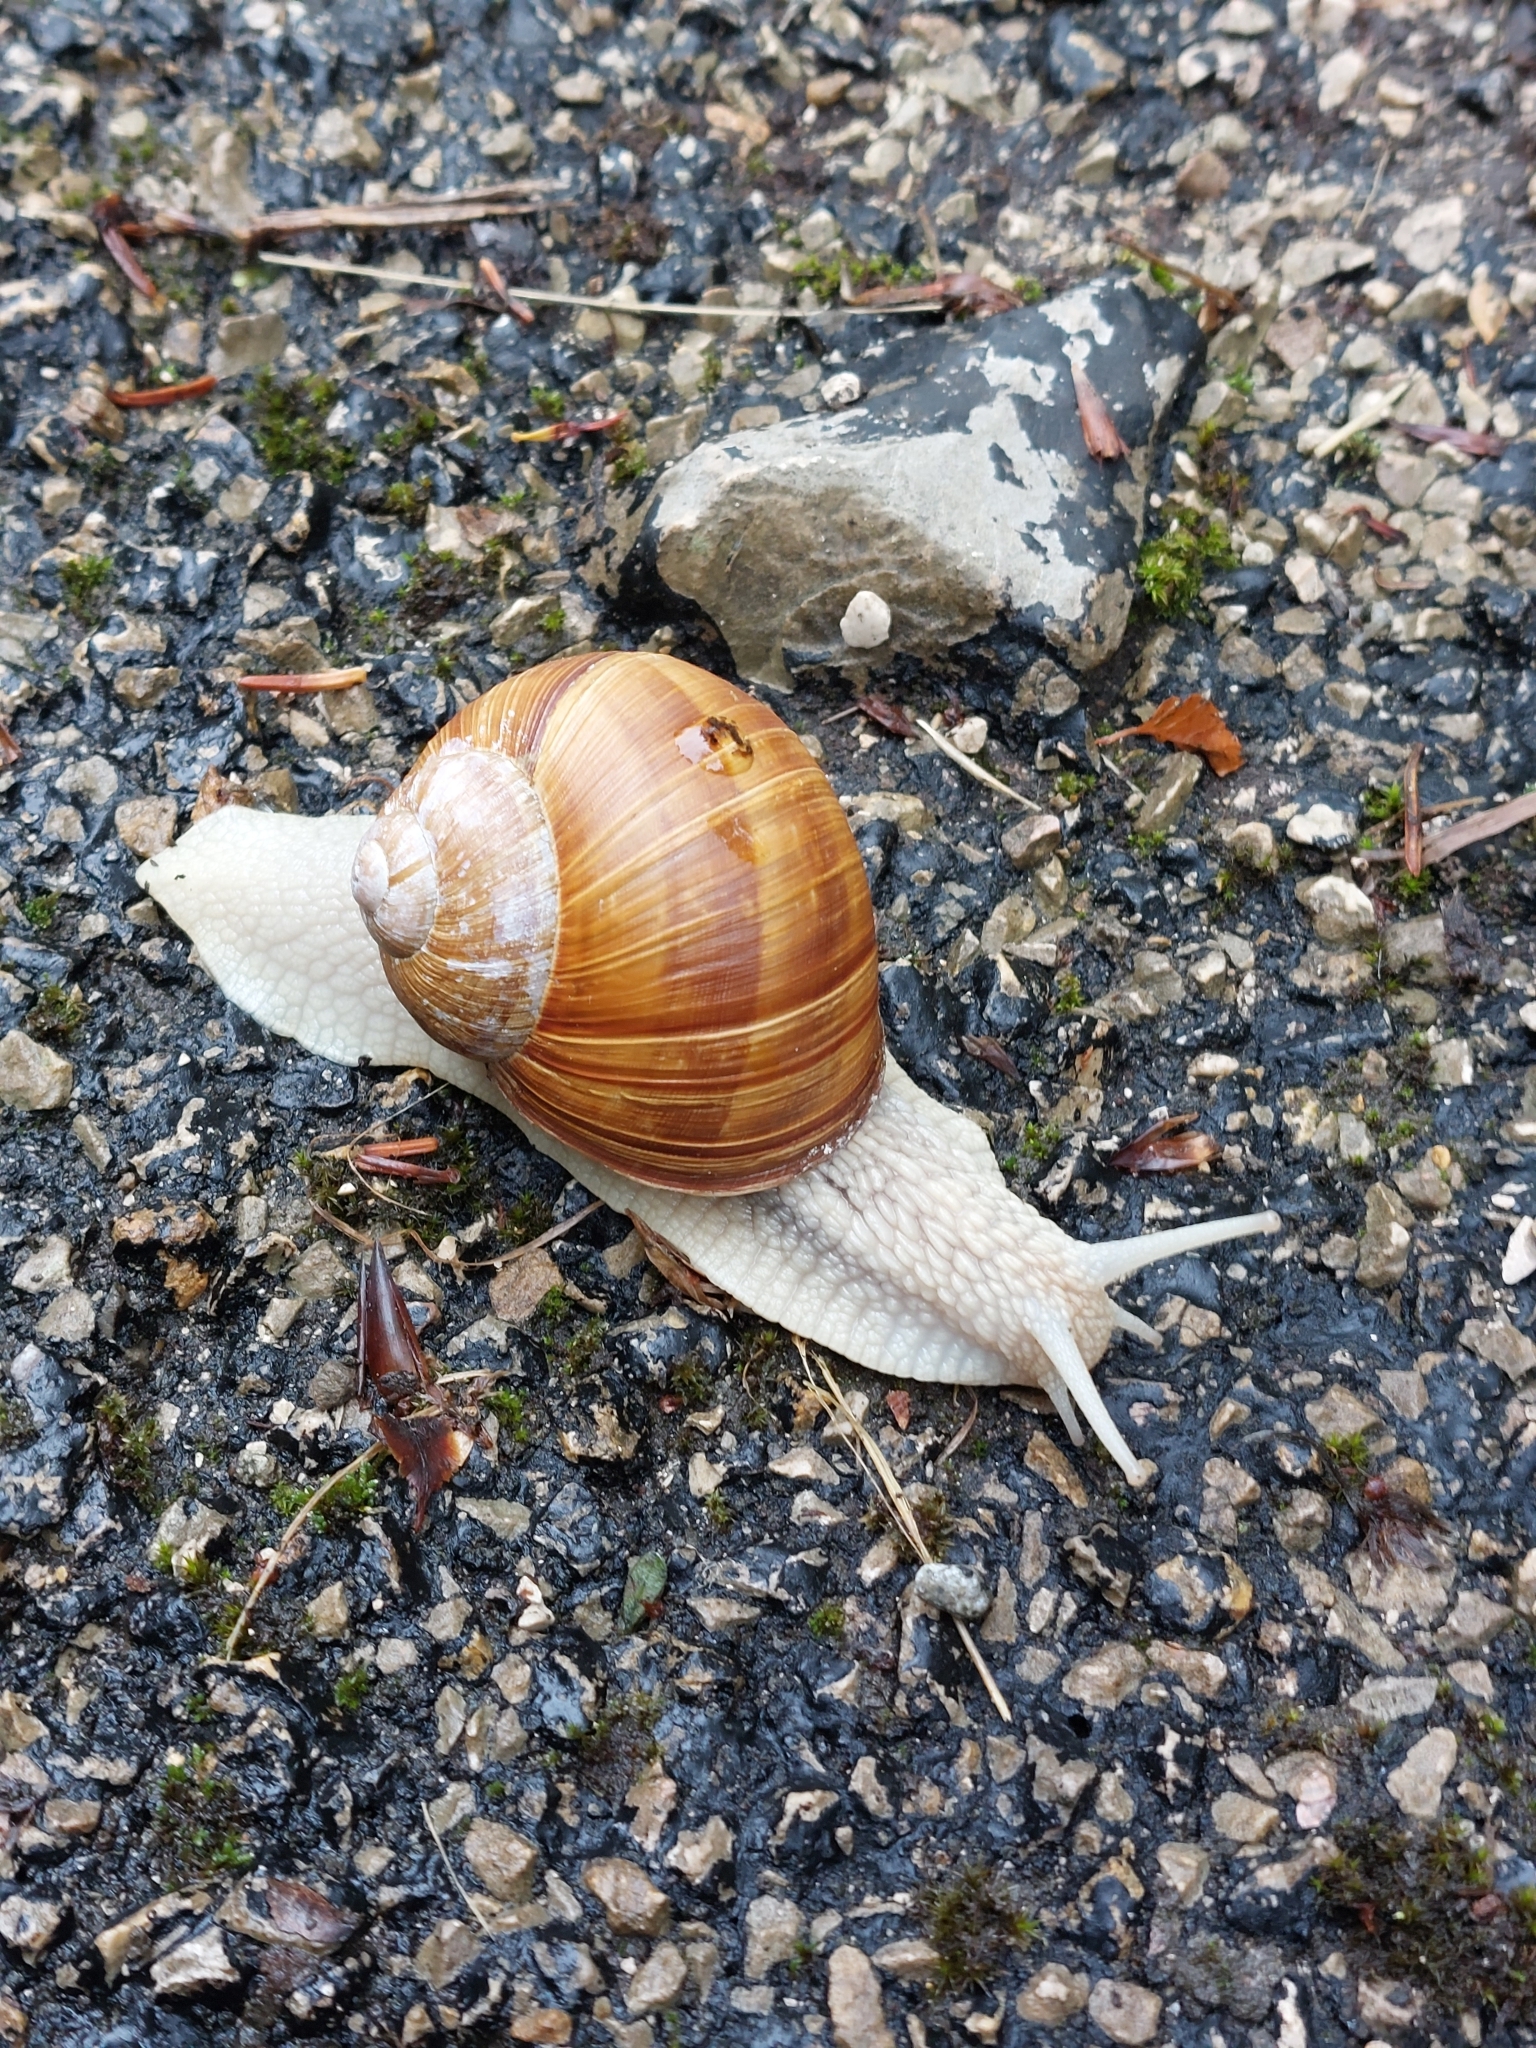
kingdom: Animalia
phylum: Mollusca
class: Gastropoda
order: Stylommatophora
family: Helicidae
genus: Helix
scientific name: Helix pomatia
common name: Roman snail
